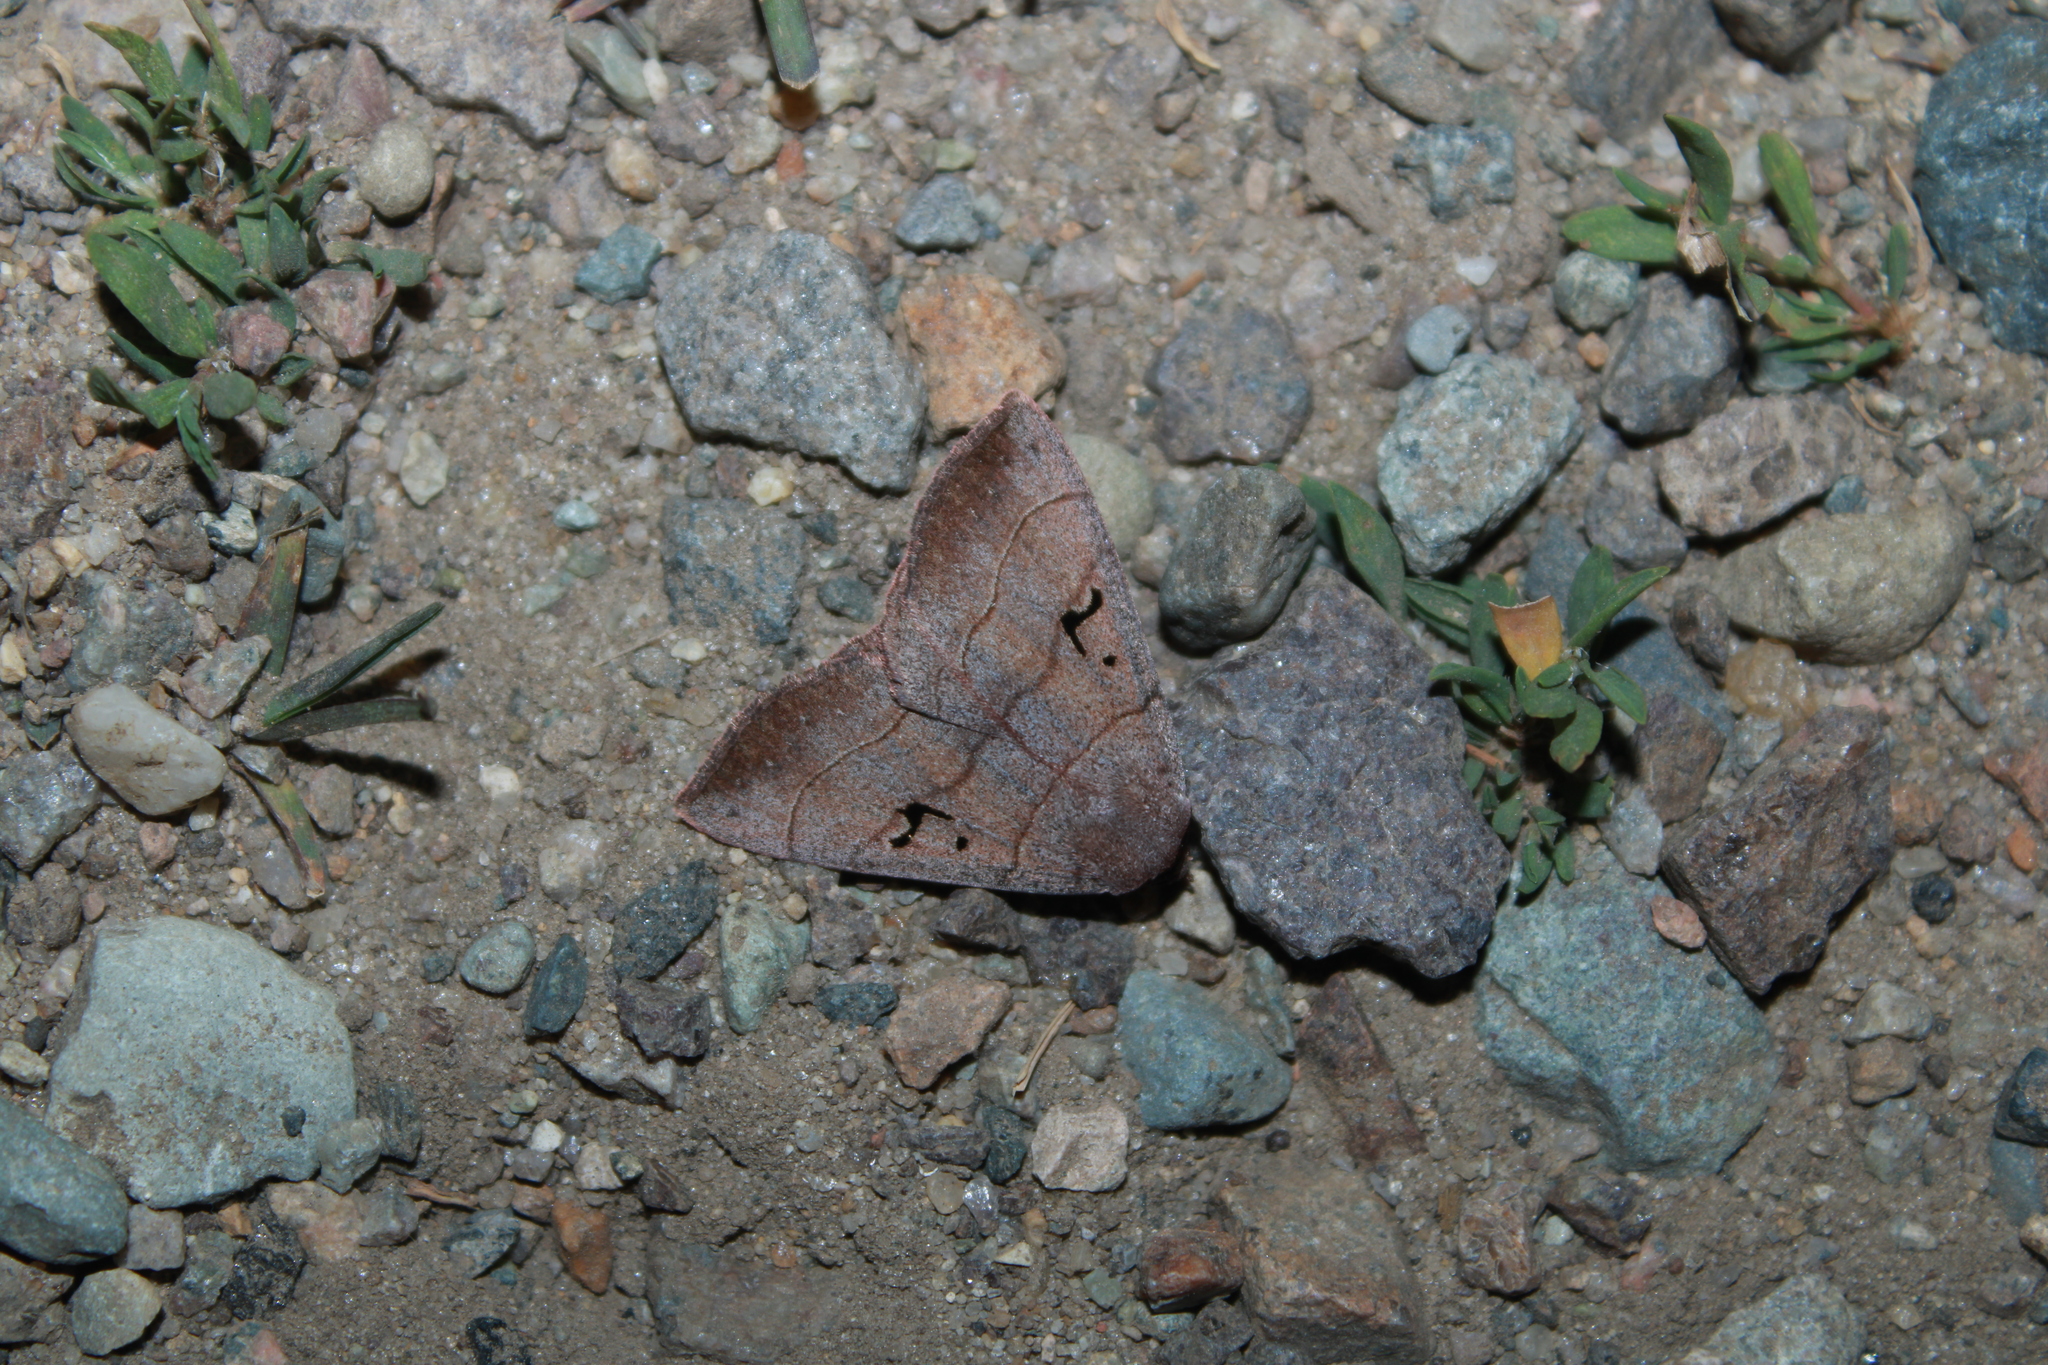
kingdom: Animalia
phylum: Arthropoda
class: Insecta
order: Lepidoptera
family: Erebidae
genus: Panopoda
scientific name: Panopoda carneicosta
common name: Brown panopoda moth
